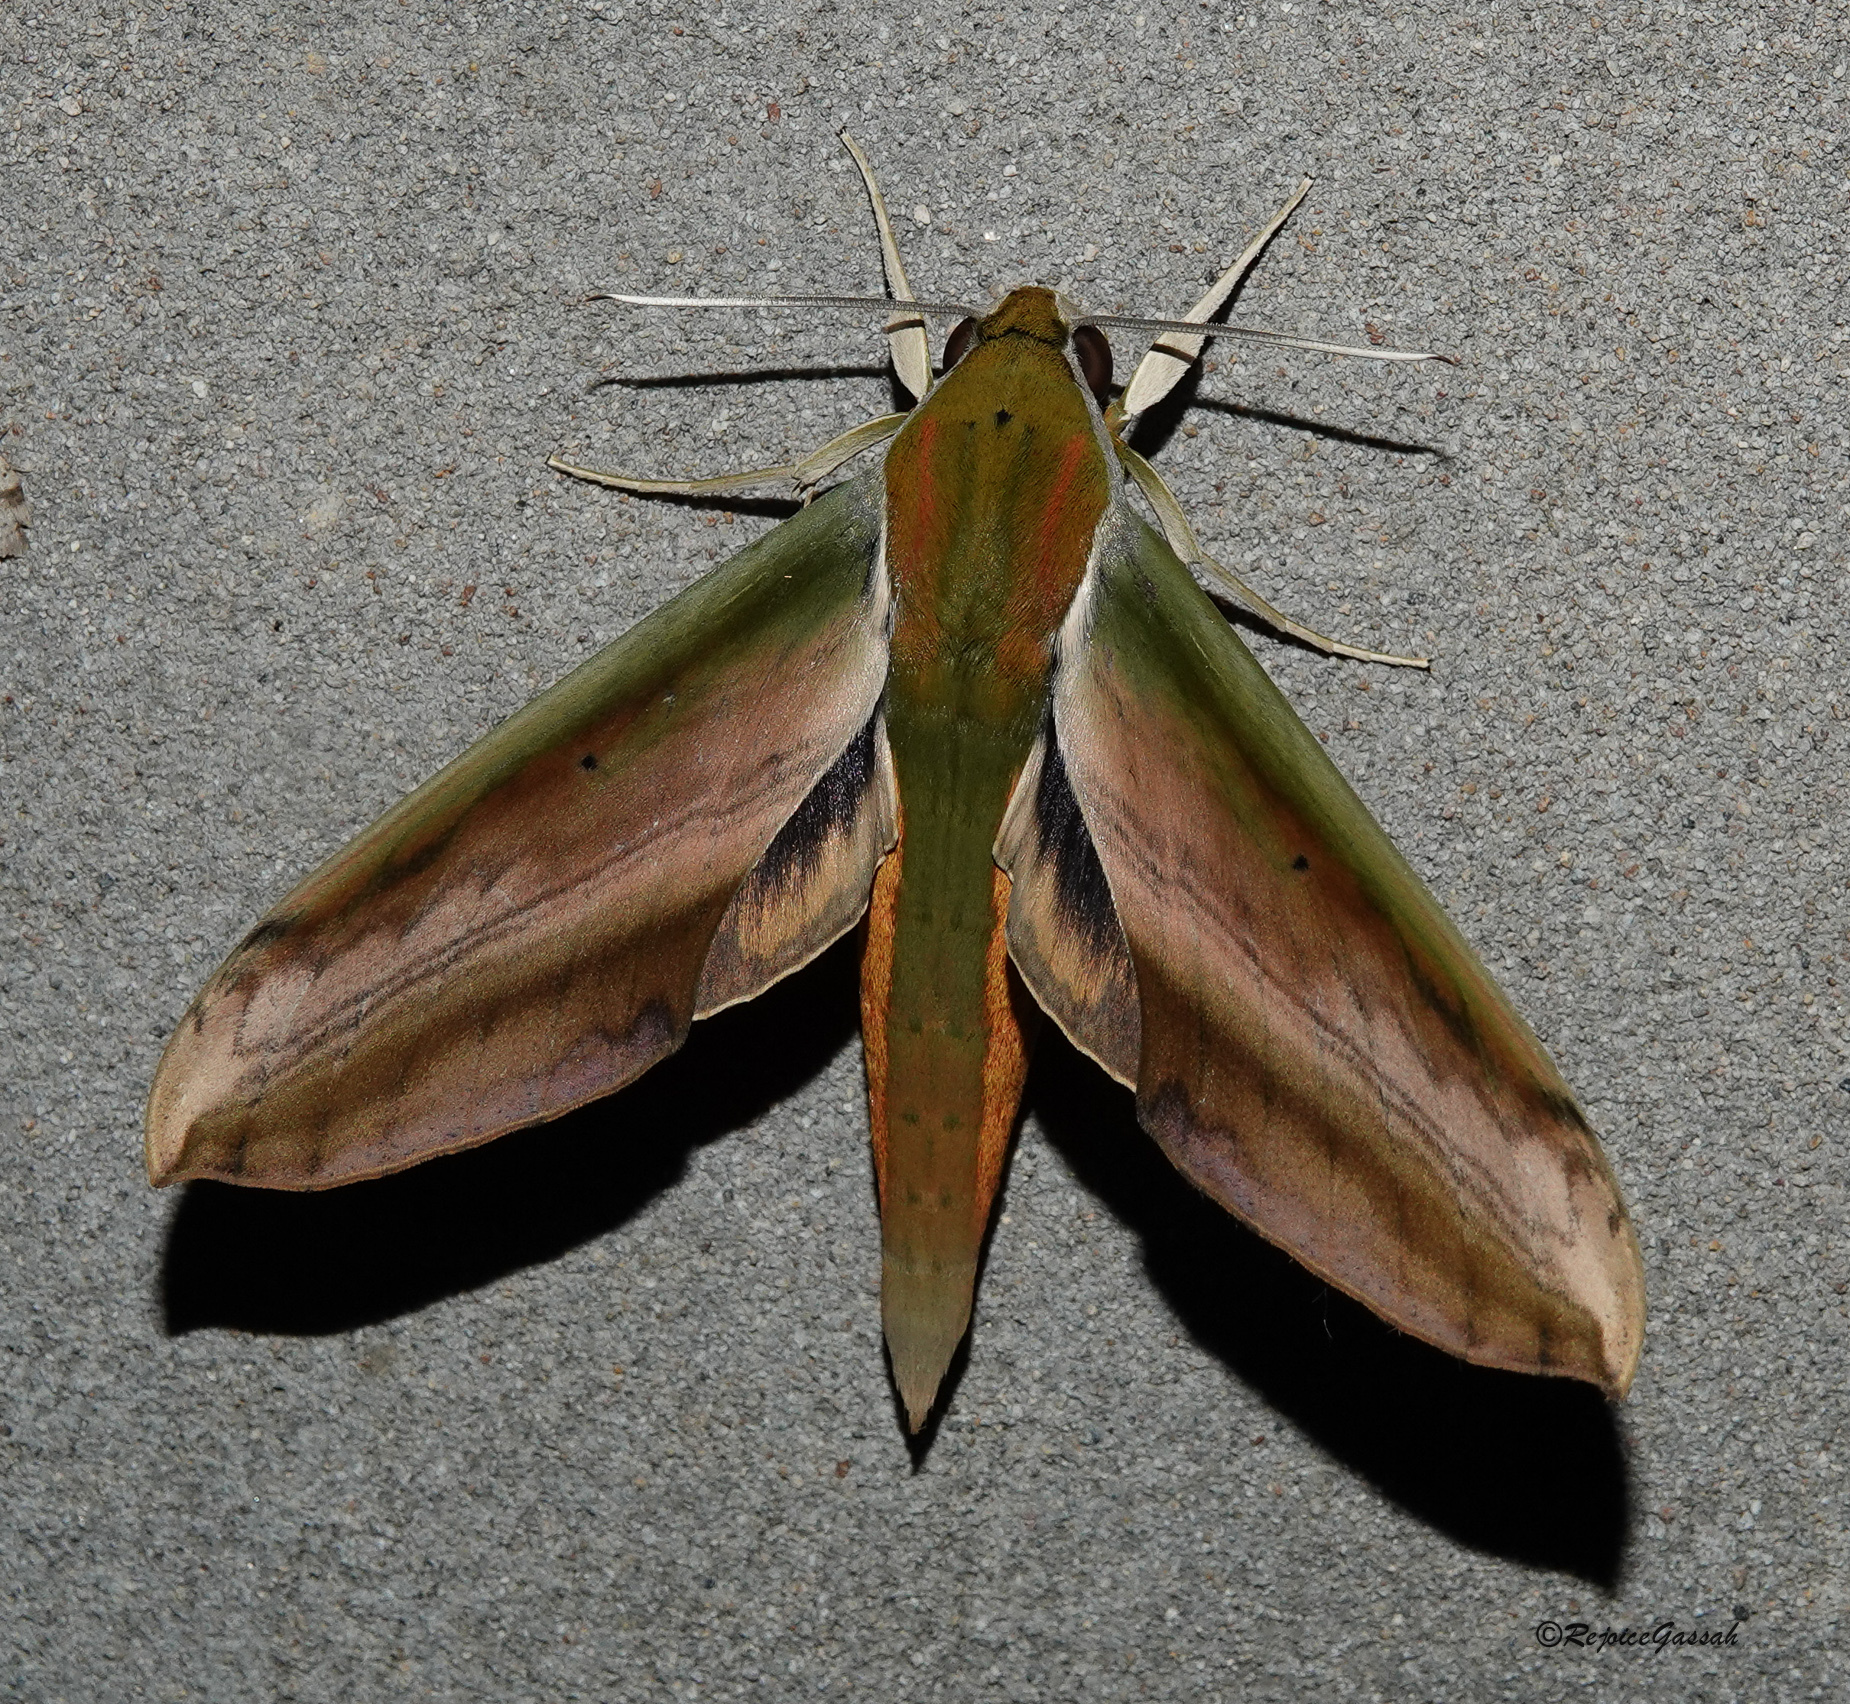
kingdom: Animalia
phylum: Arthropoda
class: Insecta
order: Lepidoptera
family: Sphingidae
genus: Theretra
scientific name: Theretra nessus
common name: Yam hawk moth
